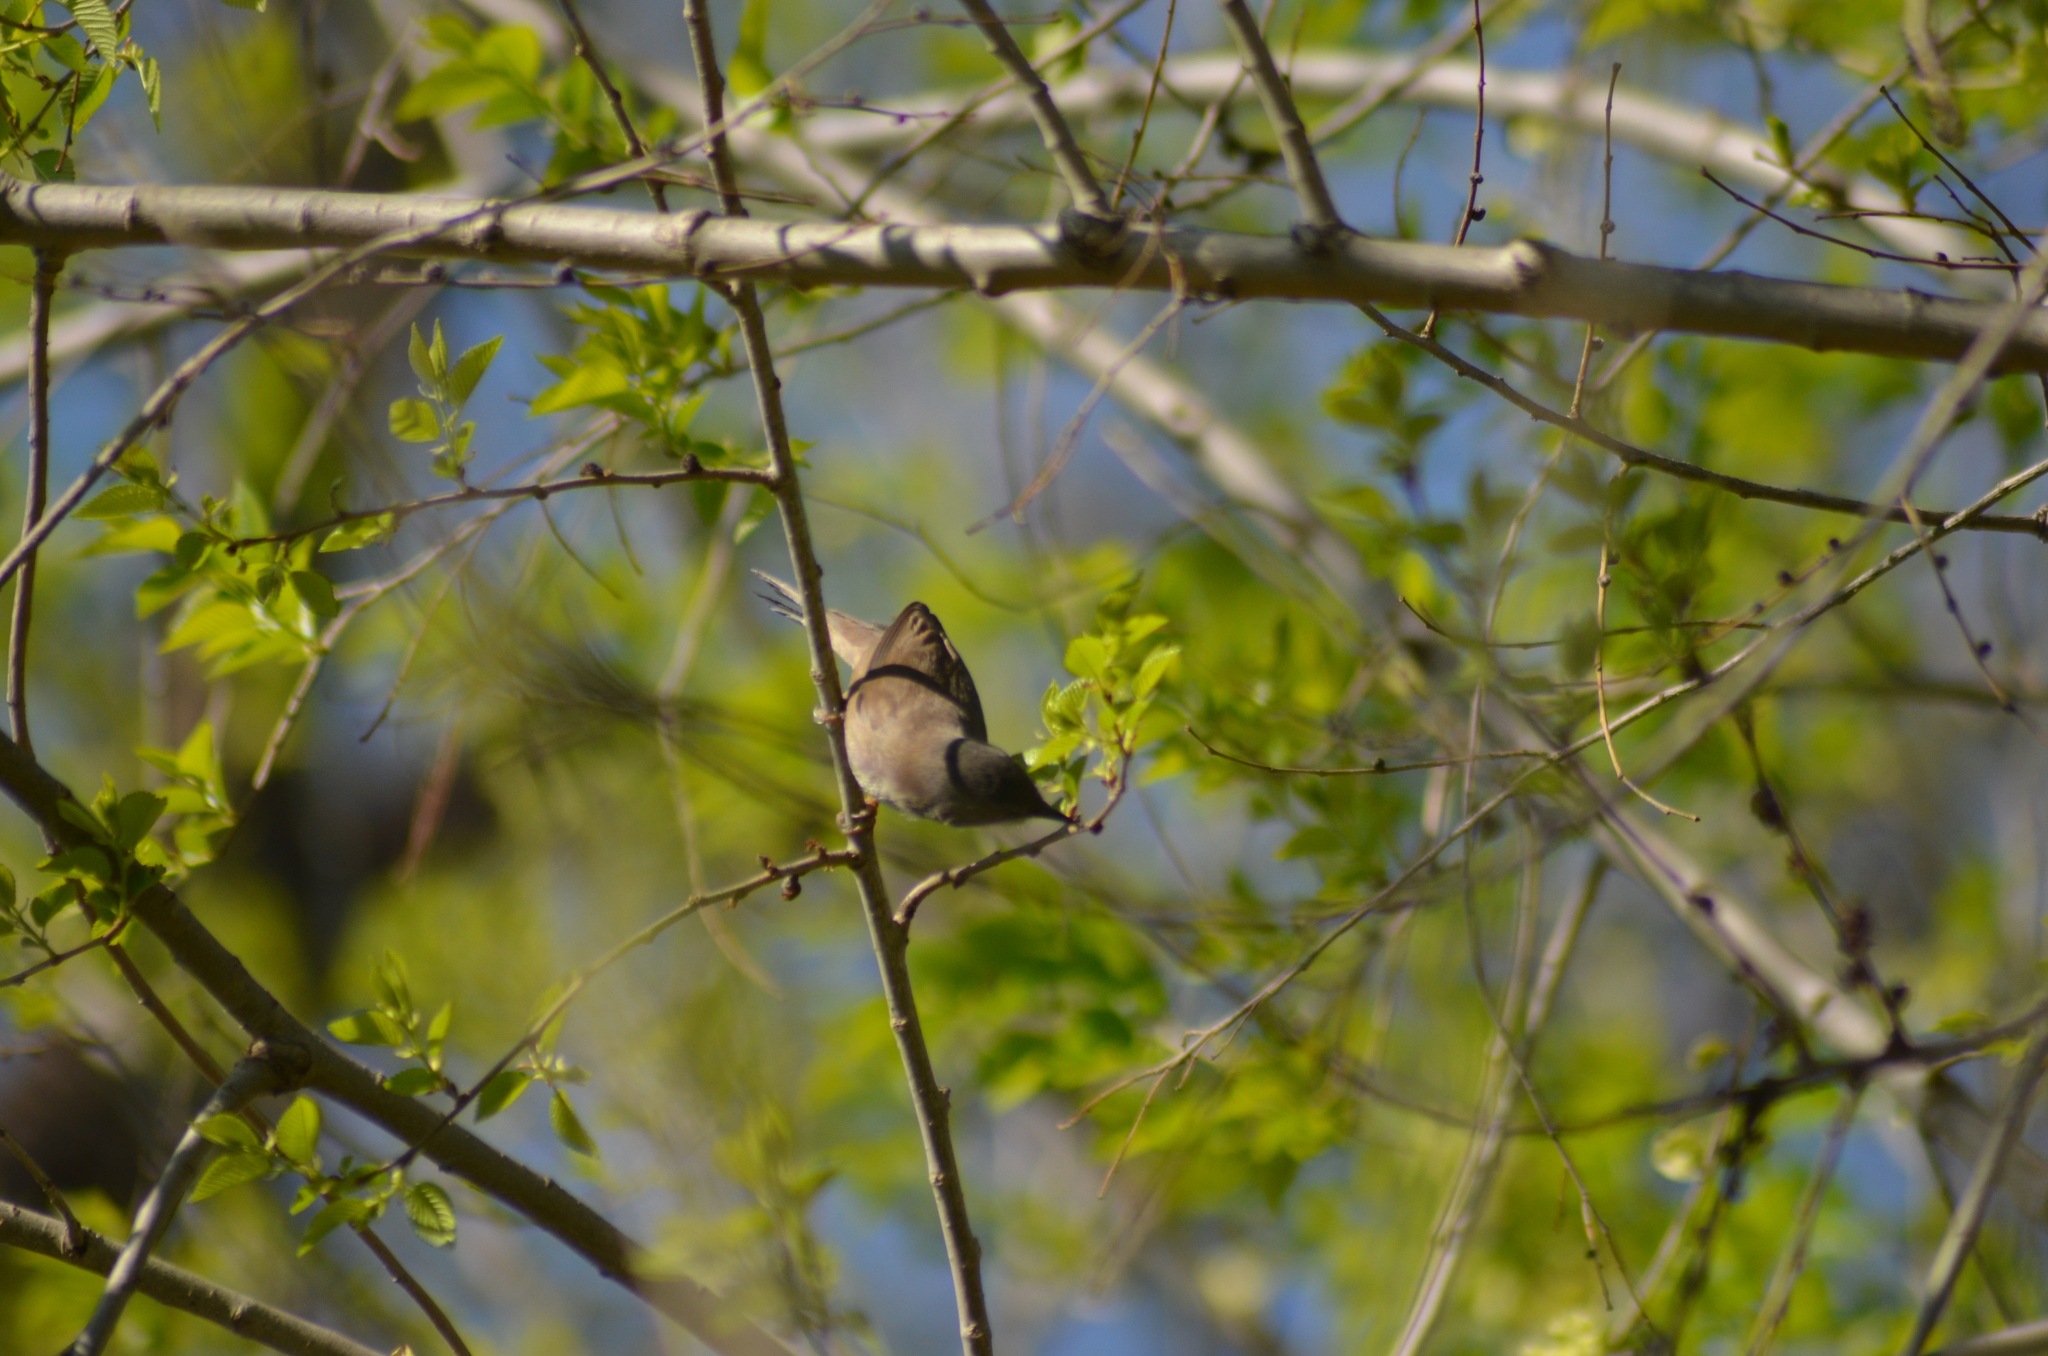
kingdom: Animalia
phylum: Chordata
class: Aves
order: Passeriformes
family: Sylviidae
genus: Curruca
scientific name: Curruca melanocephala
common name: Sardinian warbler
